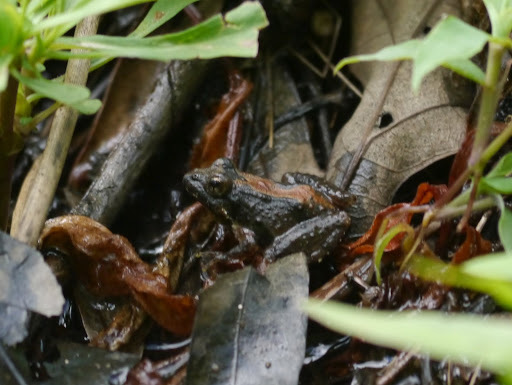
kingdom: Animalia
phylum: Chordata
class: Amphibia
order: Anura
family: Hylidae
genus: Acris
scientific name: Acris crepitans
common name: Northern cricket frog
